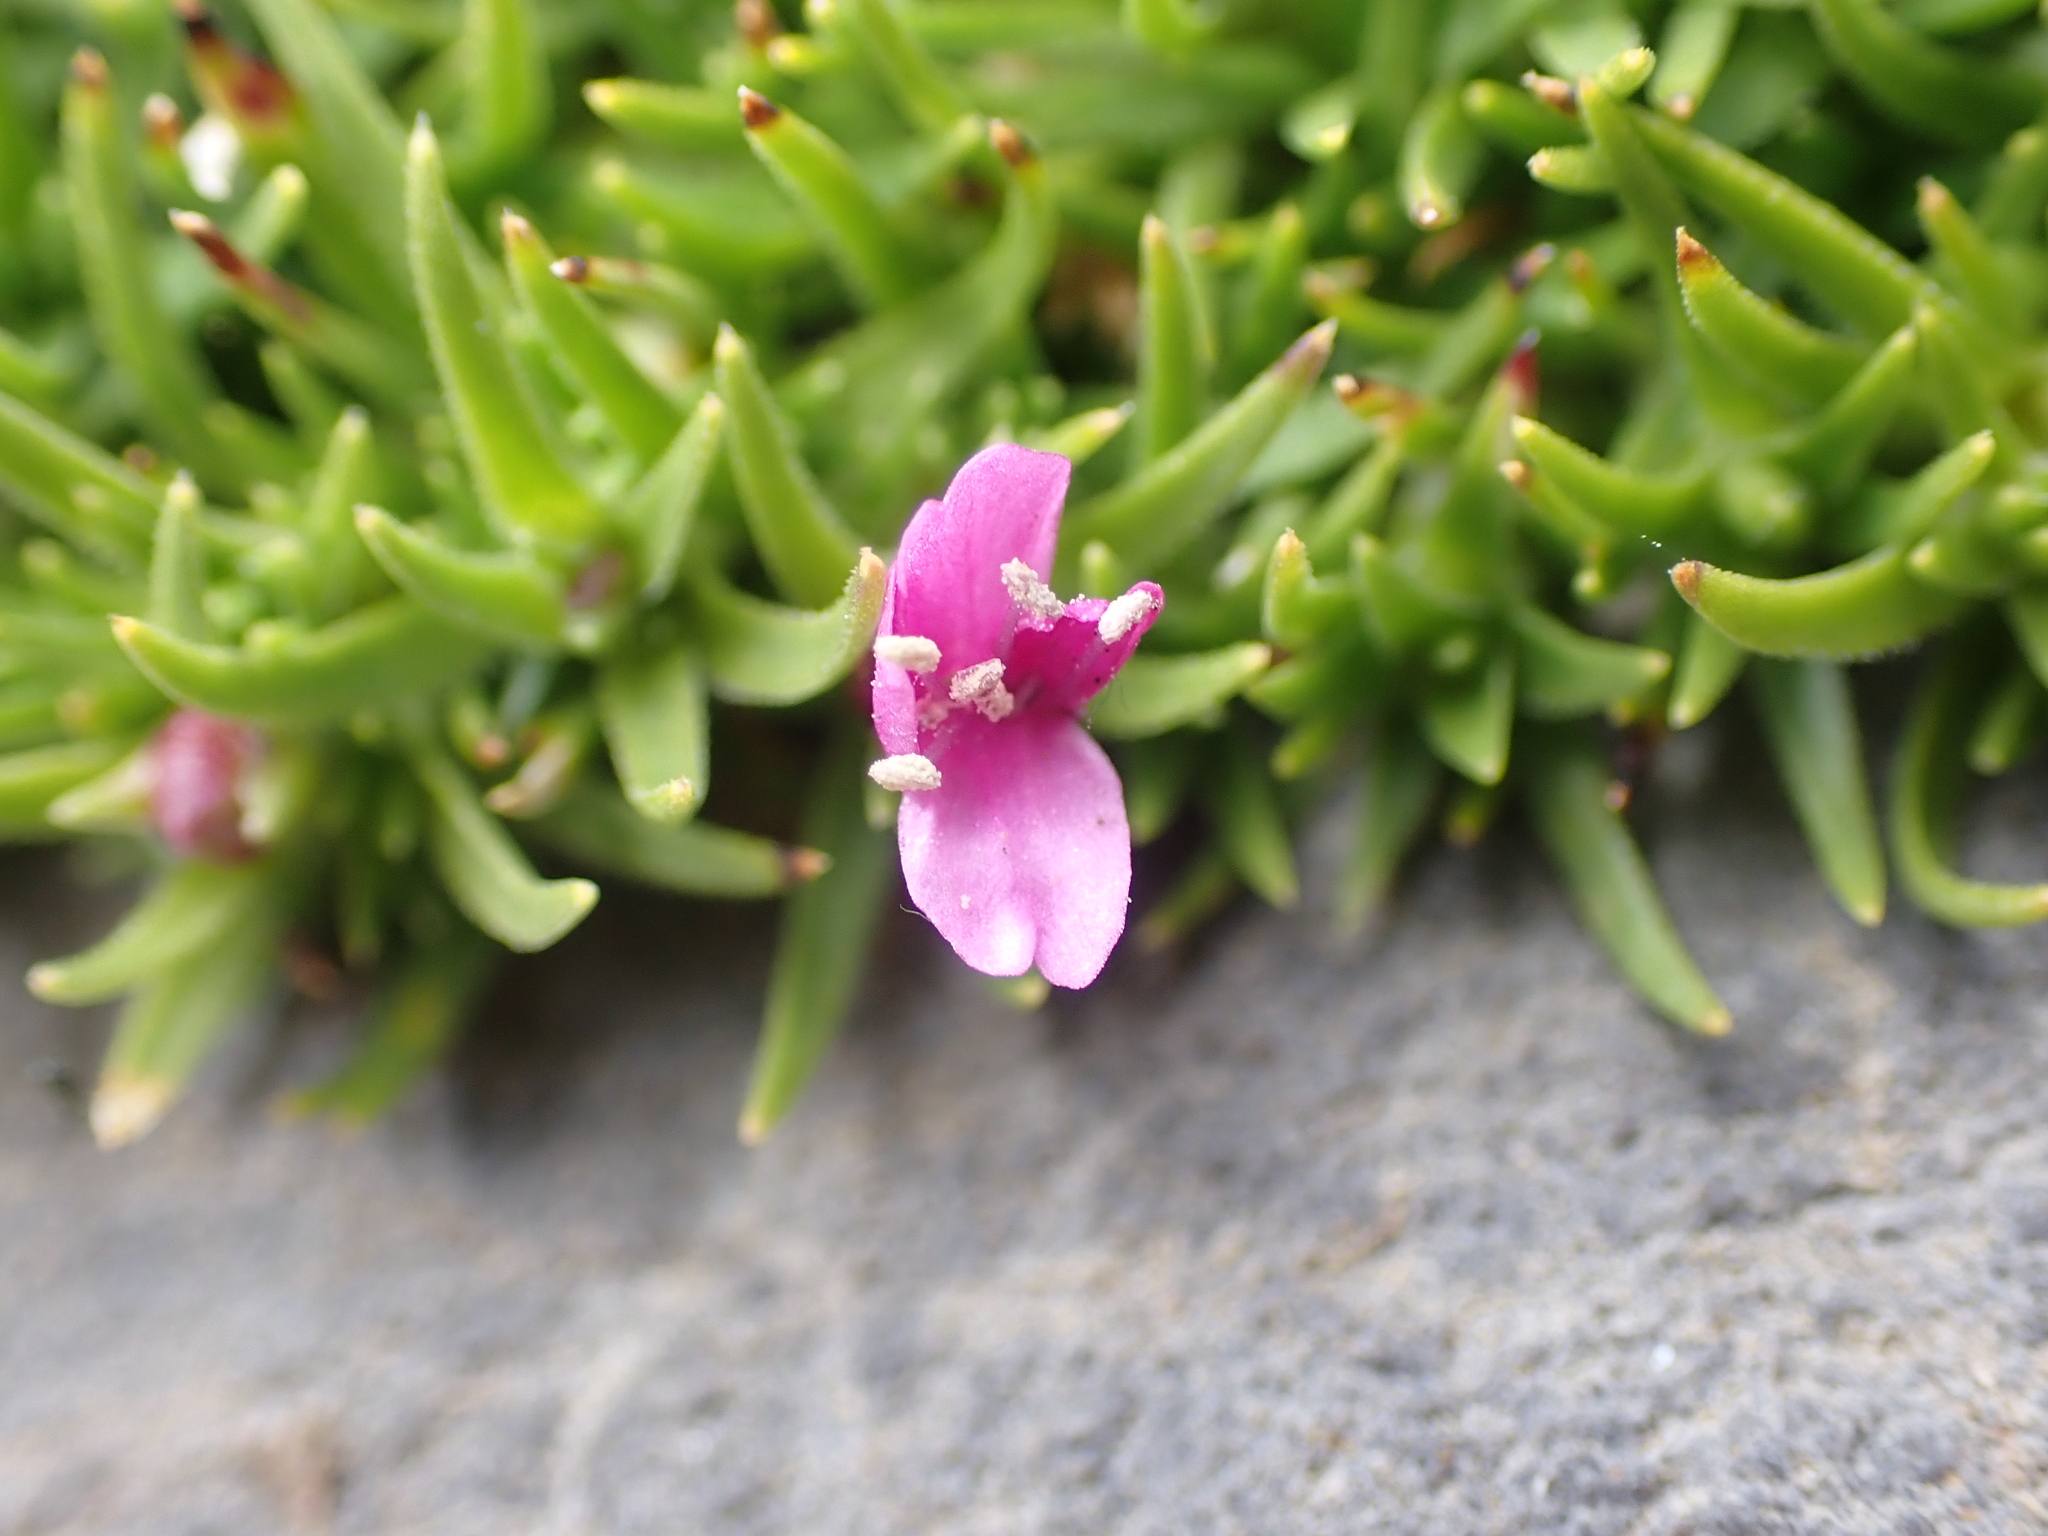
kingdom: Plantae
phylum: Tracheophyta
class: Magnoliopsida
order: Caryophyllales
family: Caryophyllaceae
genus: Silene
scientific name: Silene acaulis
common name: Moss campion
